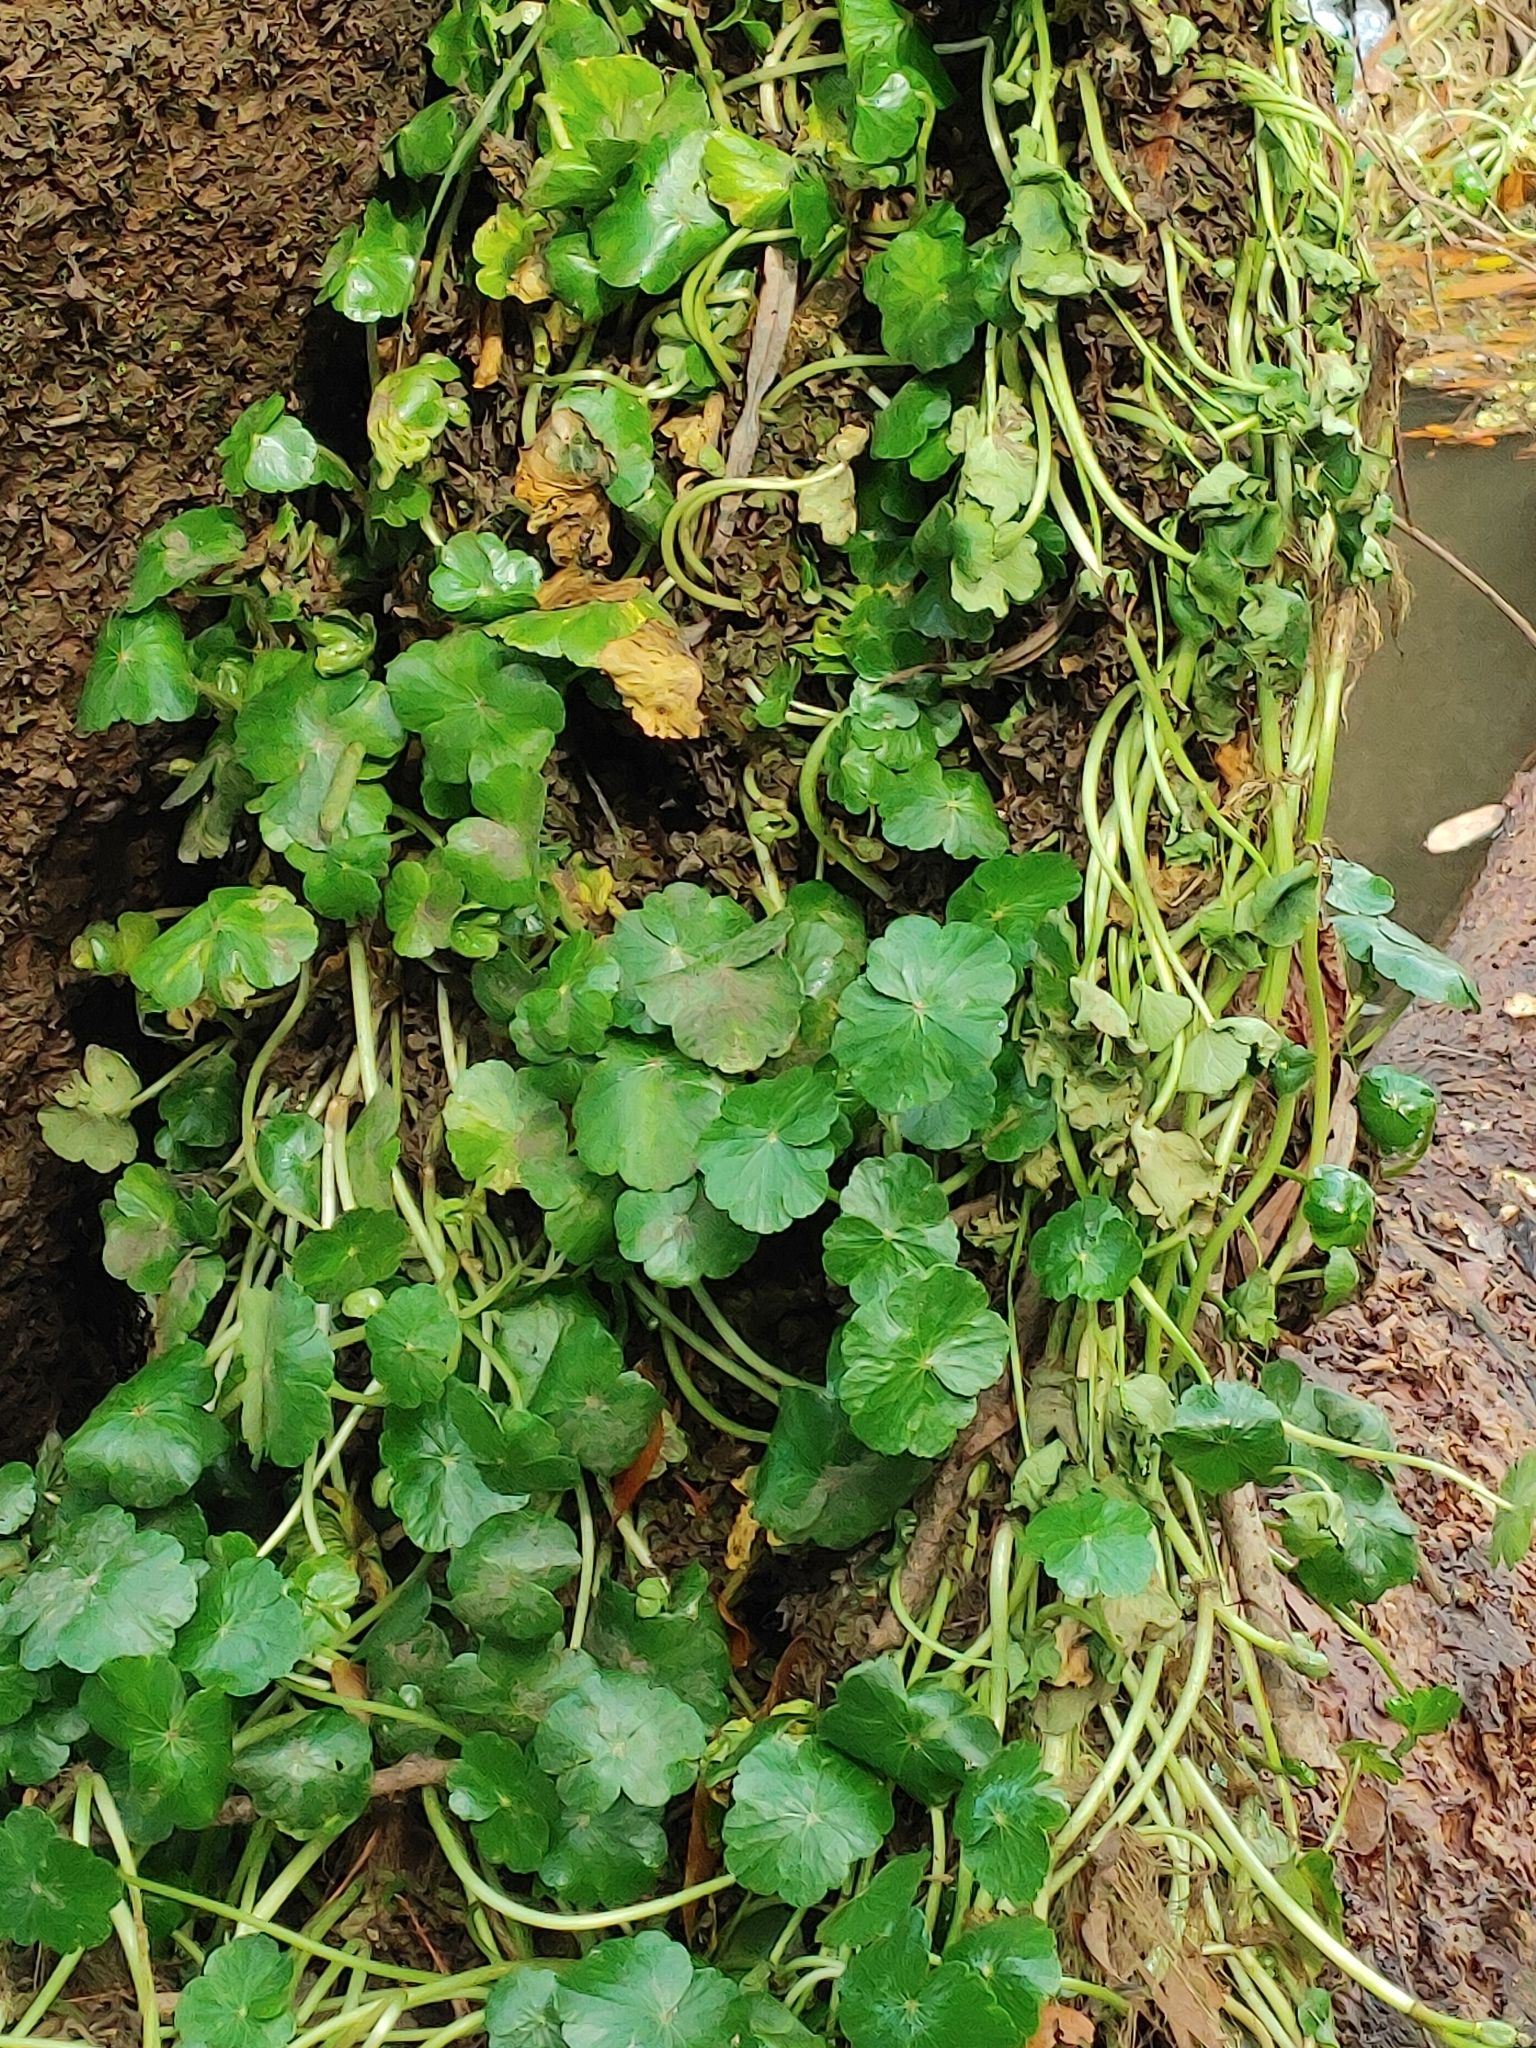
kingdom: Plantae
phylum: Tracheophyta
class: Magnoliopsida
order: Apiales
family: Araliaceae
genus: Hydrocotyle
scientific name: Hydrocotyle ranunculoides
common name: Floating pennywort
